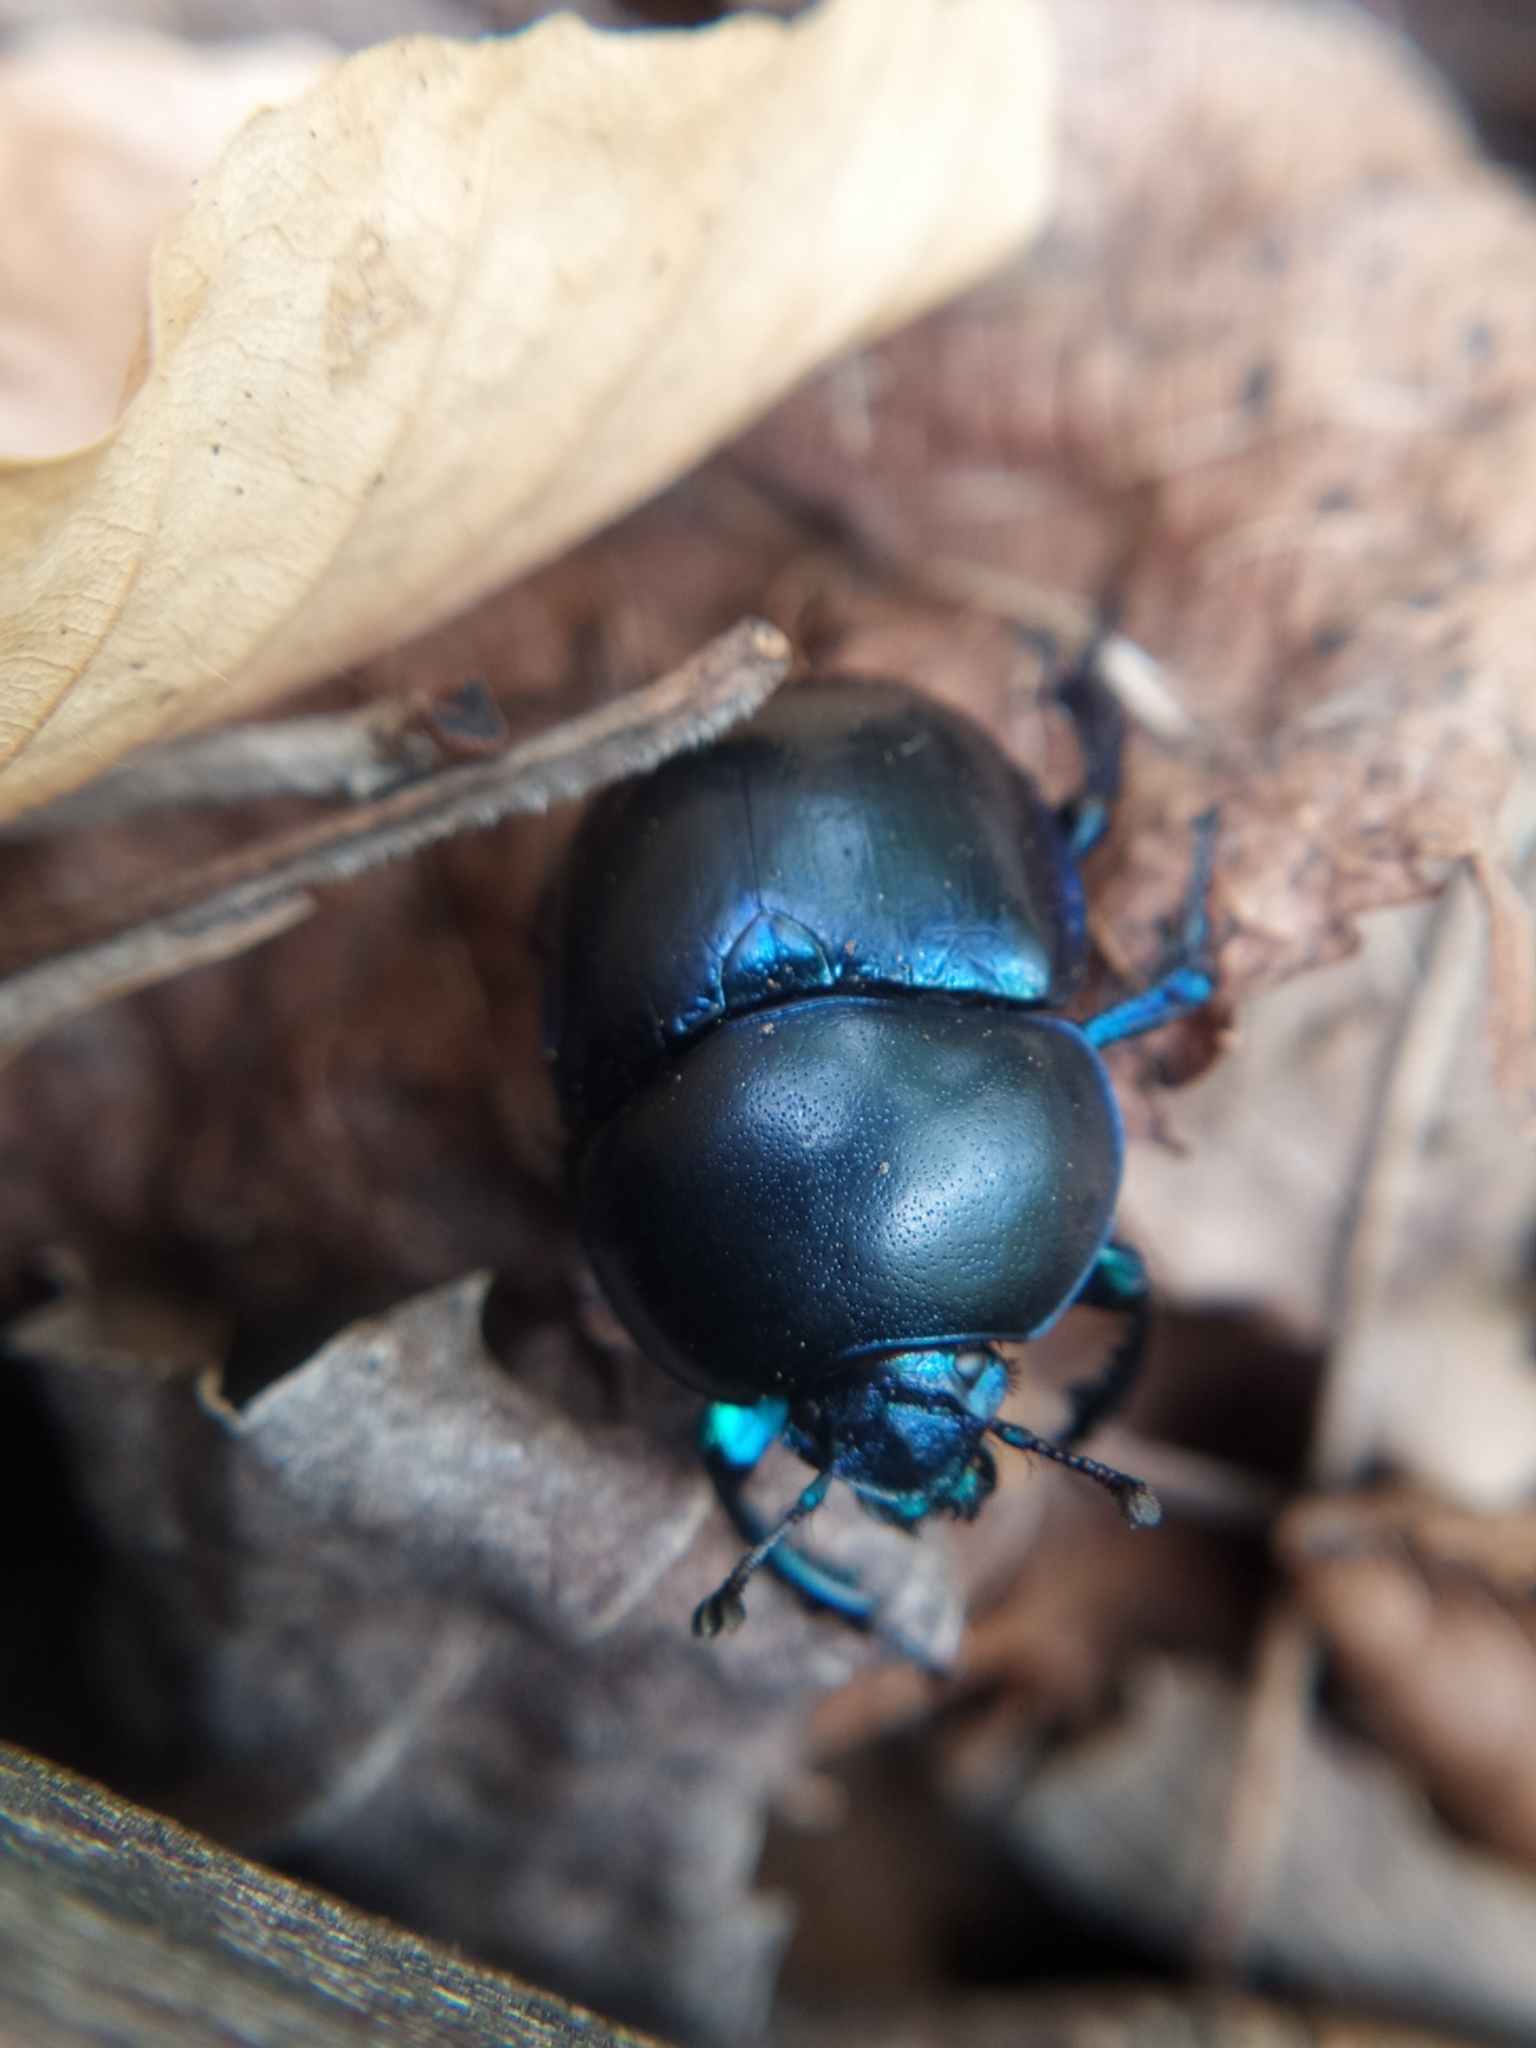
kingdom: Animalia
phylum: Arthropoda
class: Insecta
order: Coleoptera
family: Geotrupidae
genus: Trypocopris
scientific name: Trypocopris vernalis
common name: Spring dumbledor
